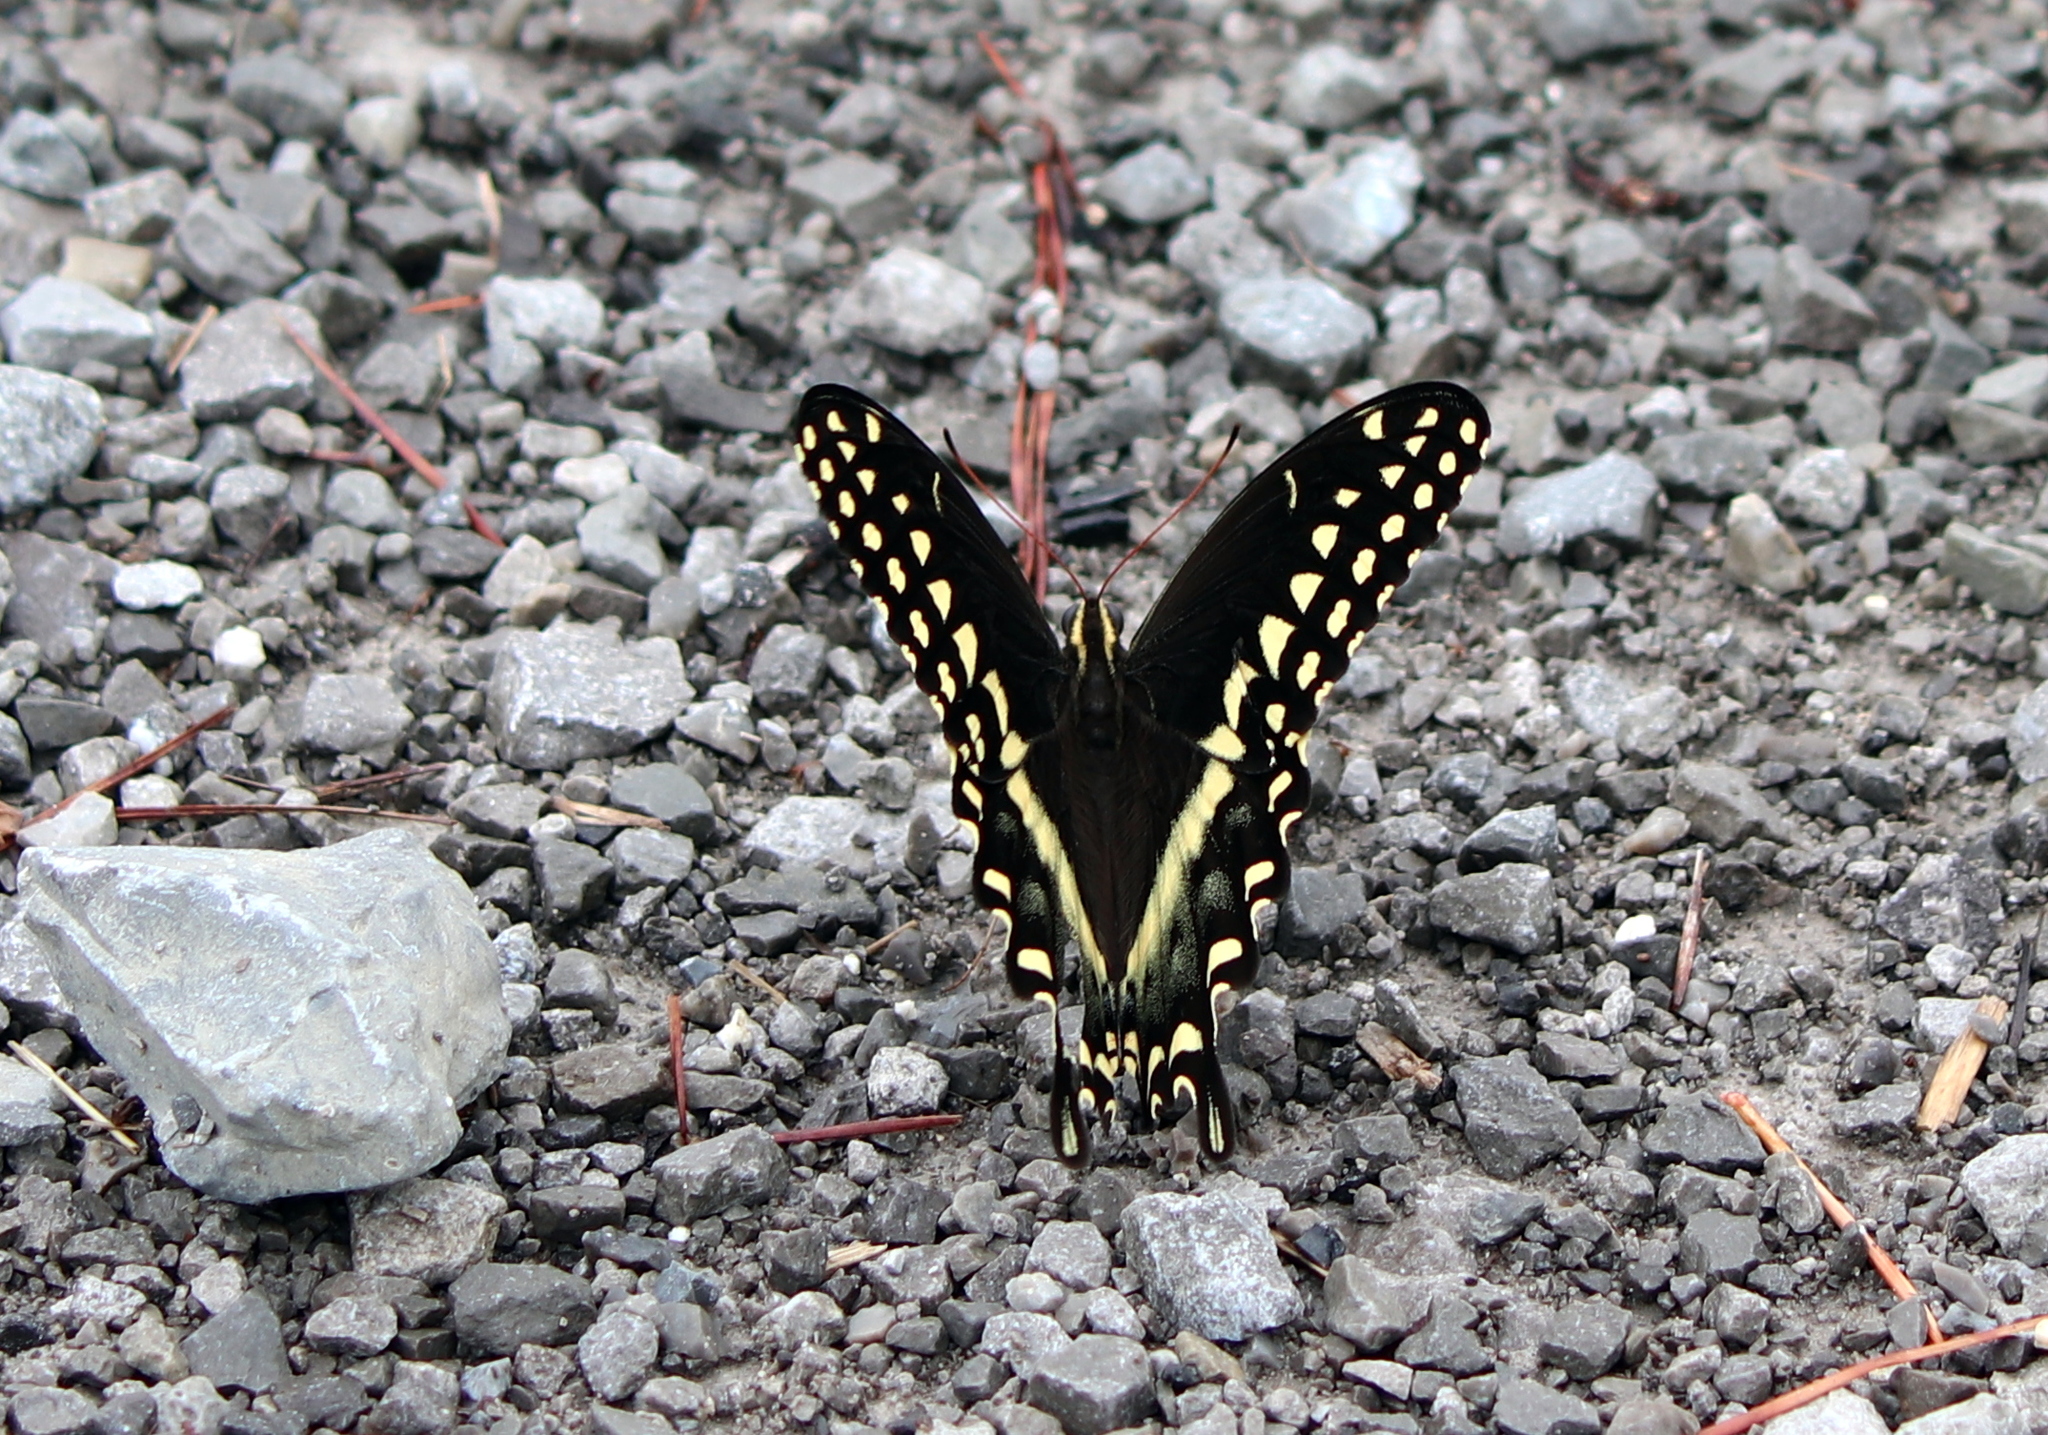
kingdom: Animalia
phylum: Arthropoda
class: Insecta
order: Lepidoptera
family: Papilionidae
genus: Papilio
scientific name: Papilio palamedes
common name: Palamedes swallowtail
